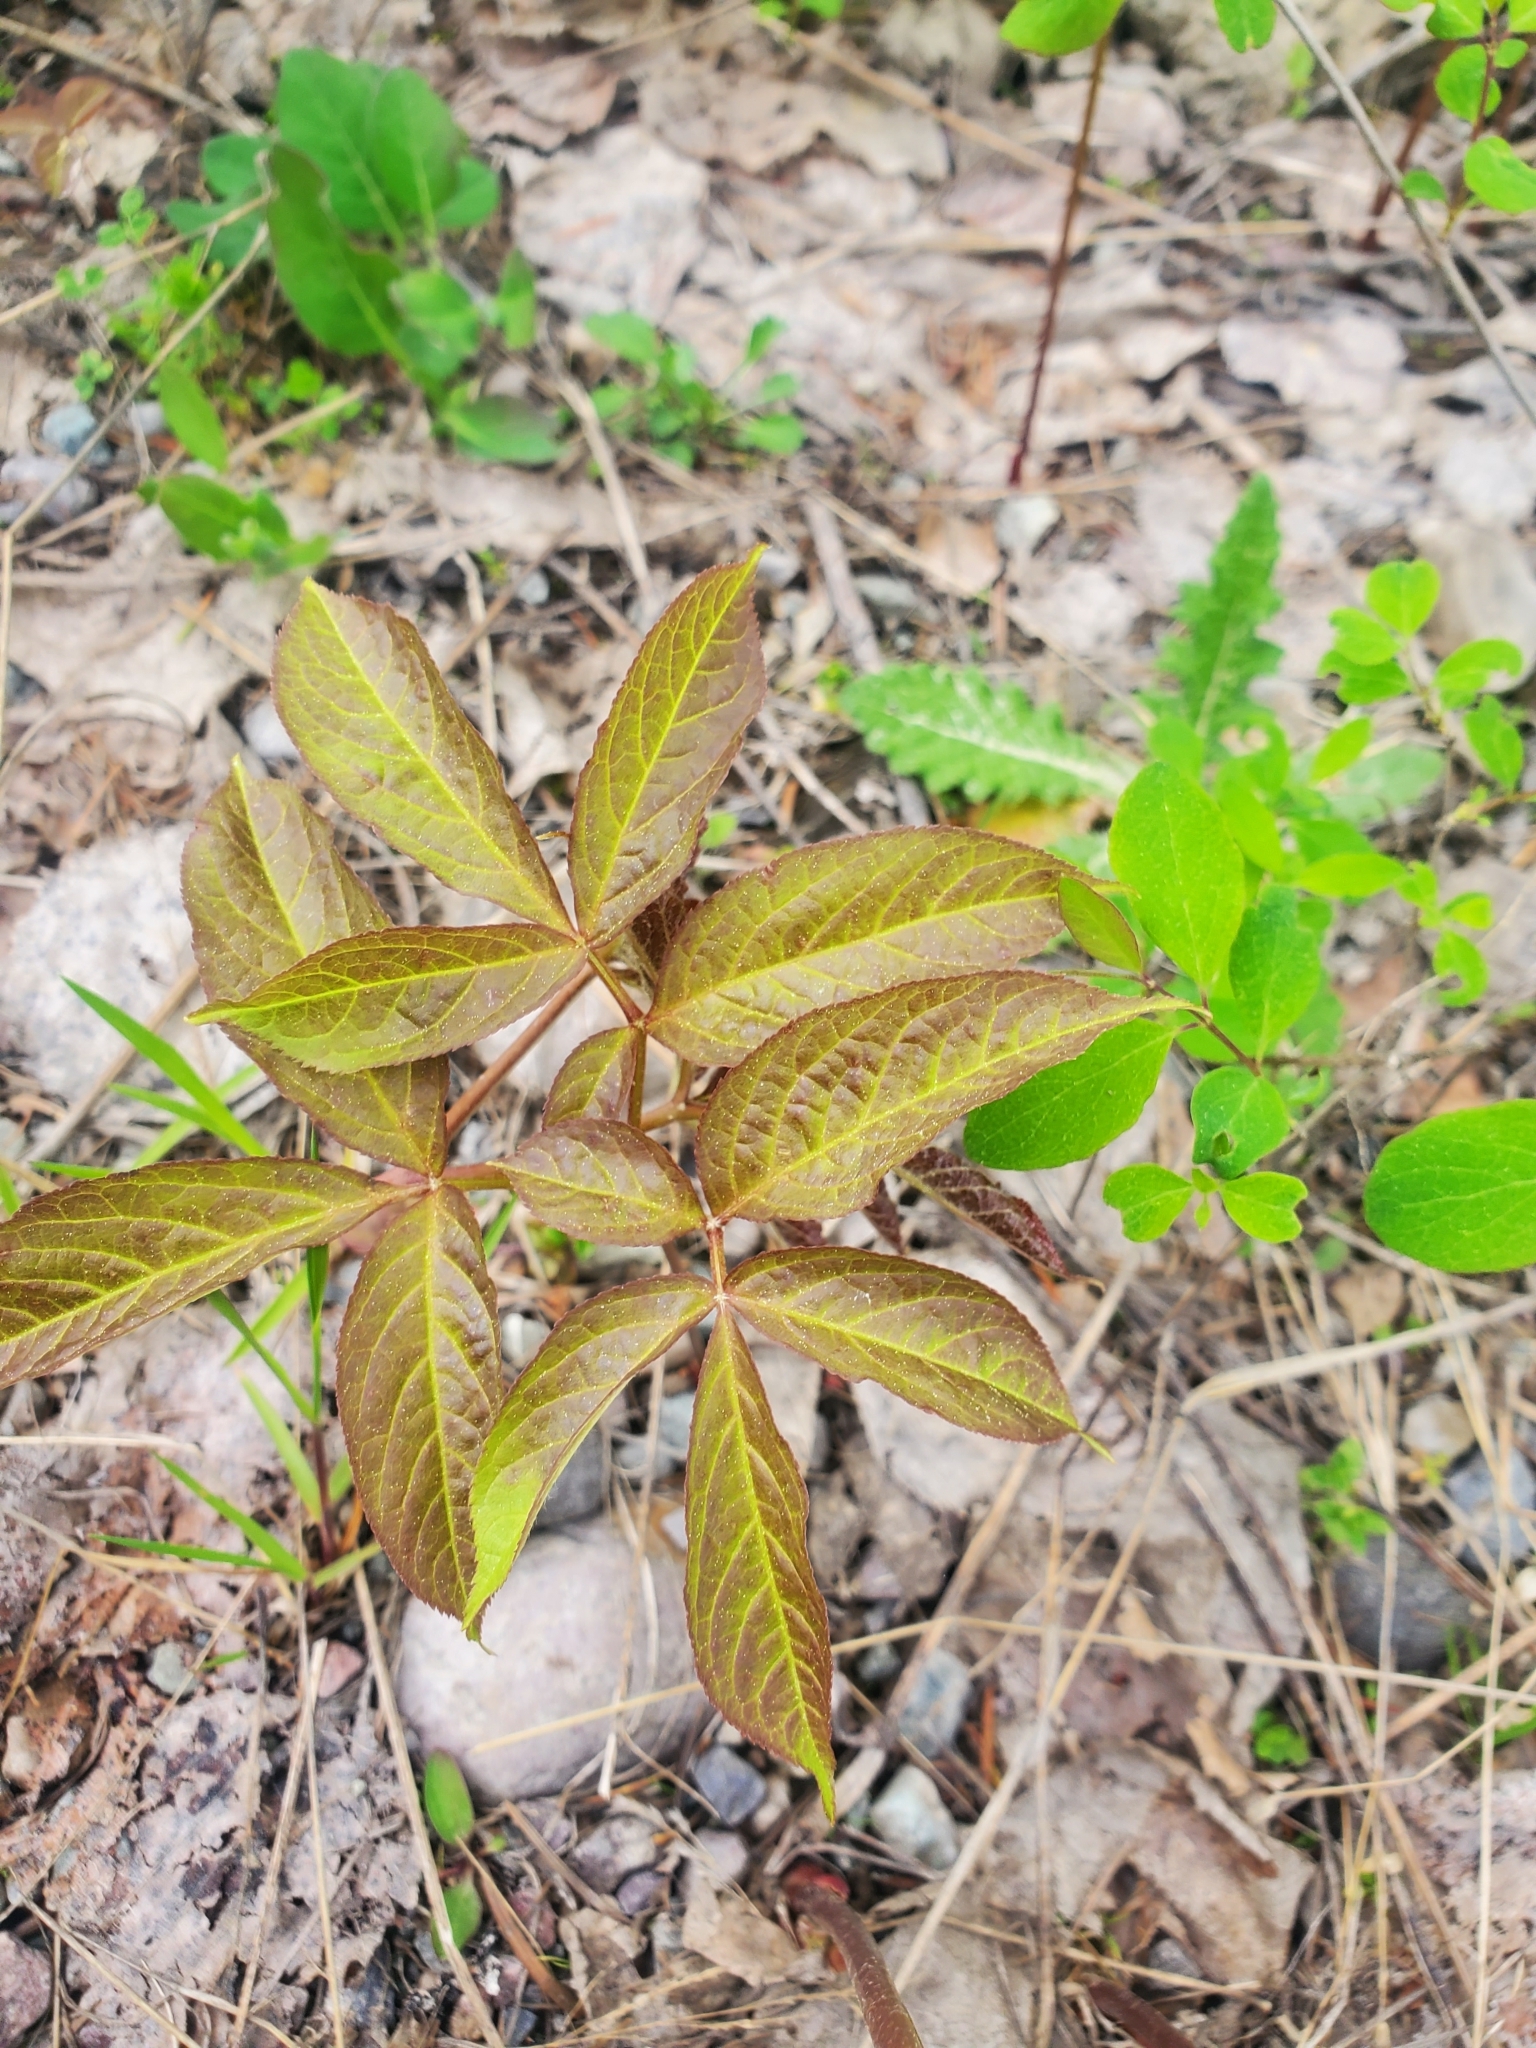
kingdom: Plantae
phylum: Tracheophyta
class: Magnoliopsida
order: Apiales
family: Araliaceae
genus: Aralia
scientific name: Aralia nudicaulis
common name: Wild sarsaparilla
